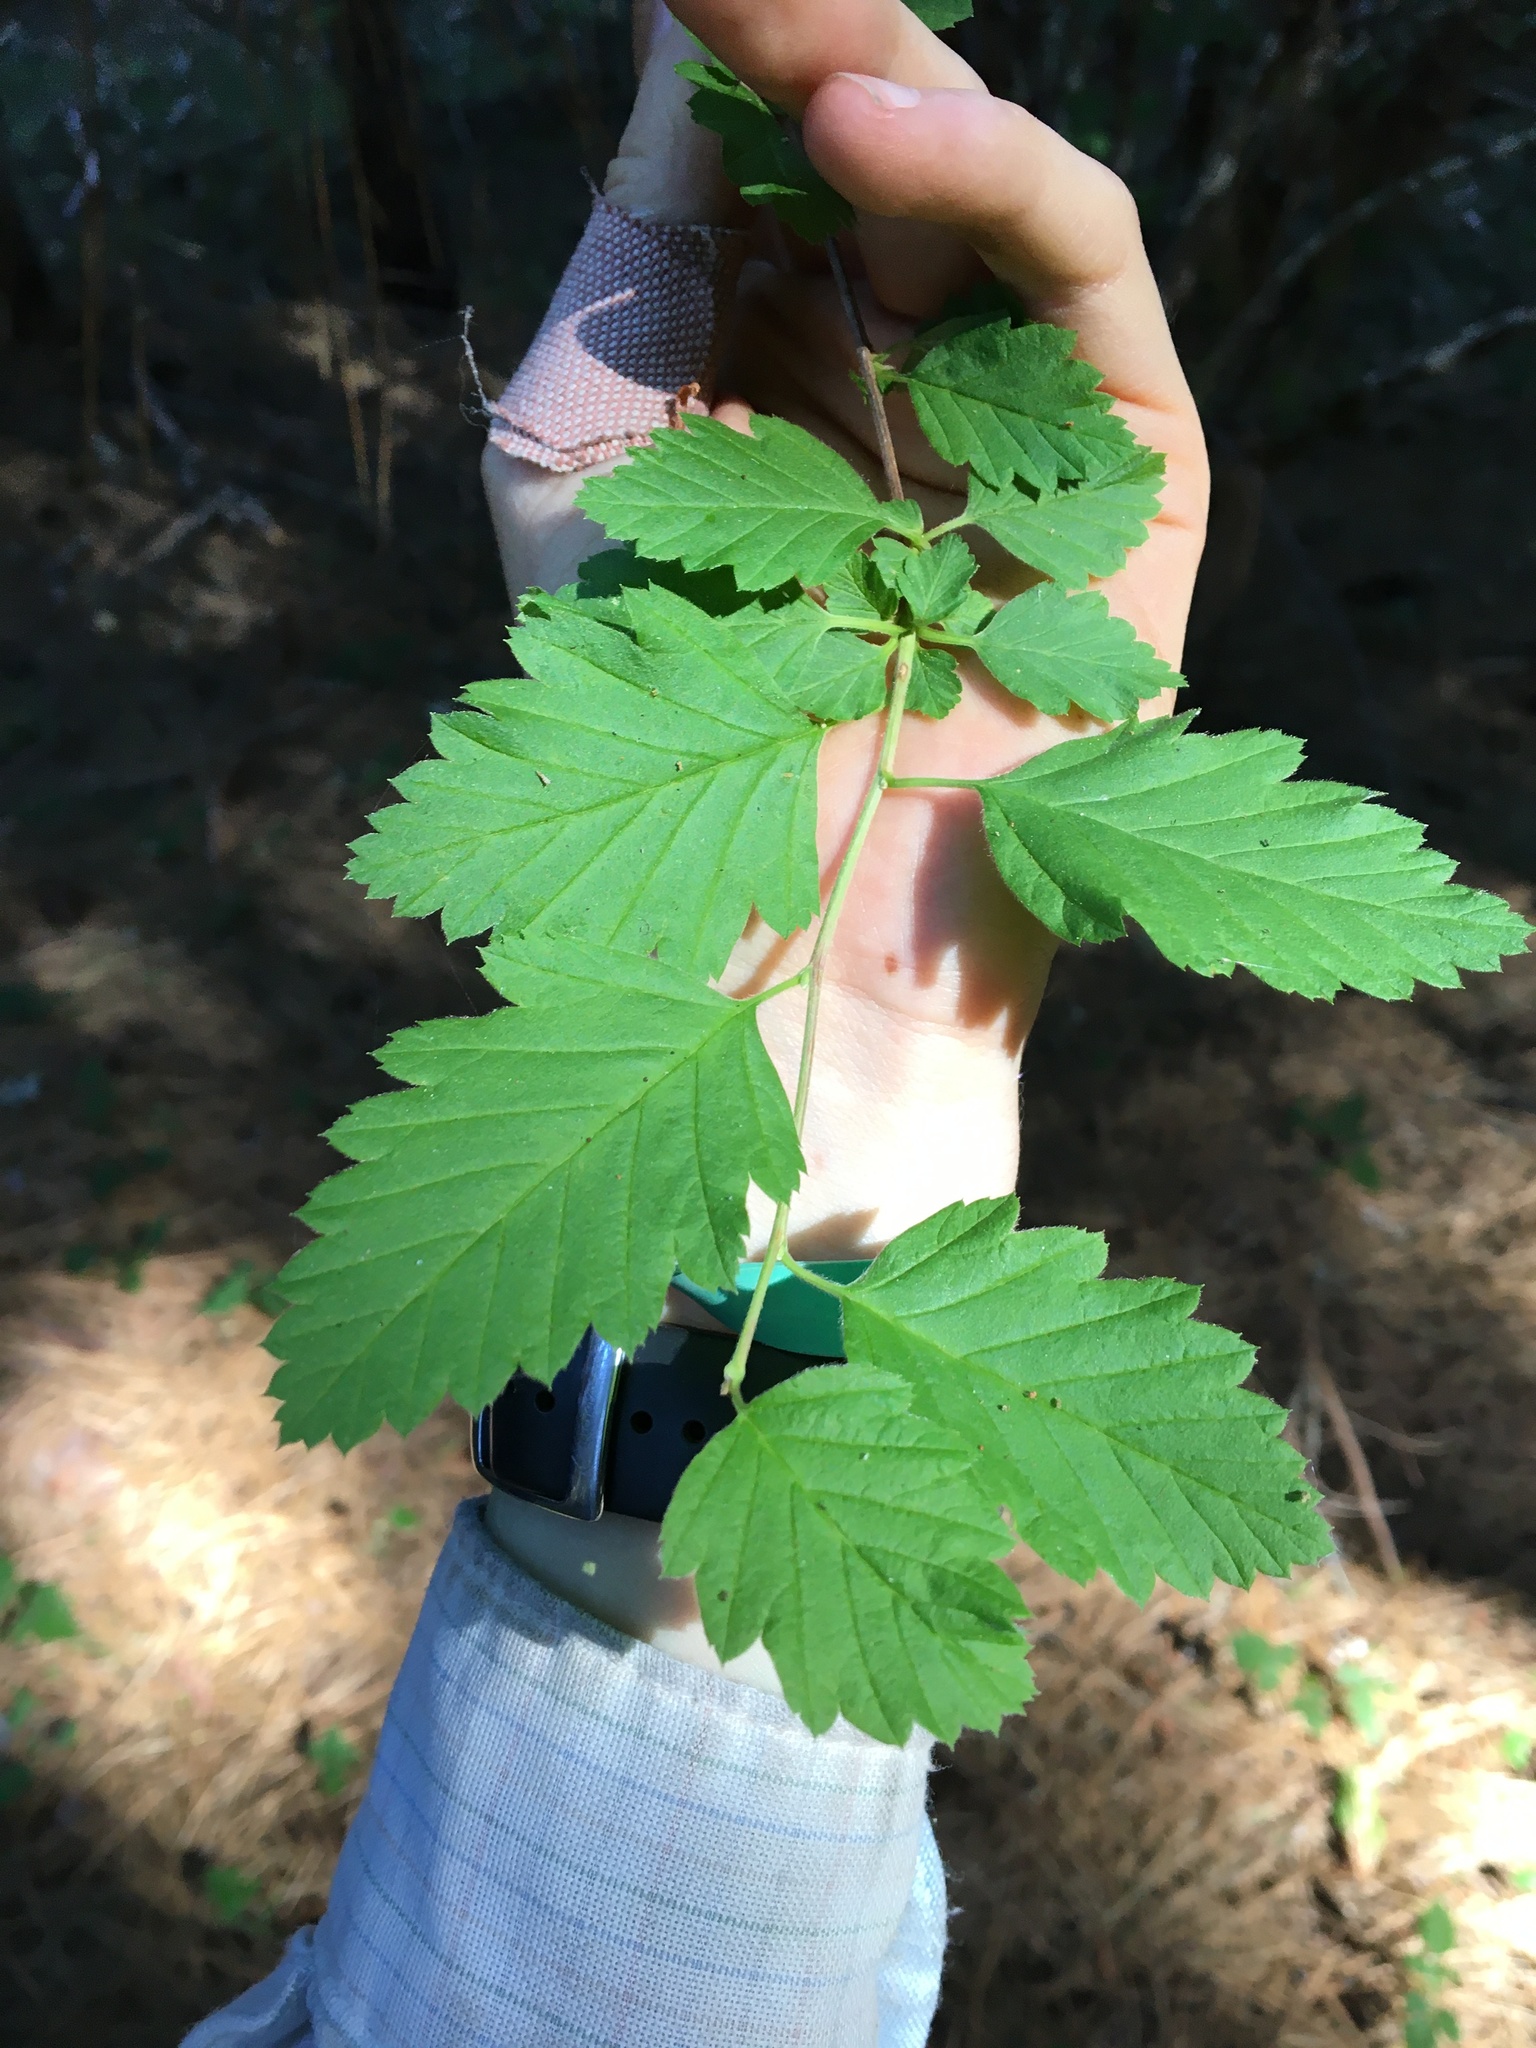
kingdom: Plantae
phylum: Tracheophyta
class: Magnoliopsida
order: Rosales
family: Rosaceae
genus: Holodiscus
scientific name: Holodiscus discolor
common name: Oceanspray
